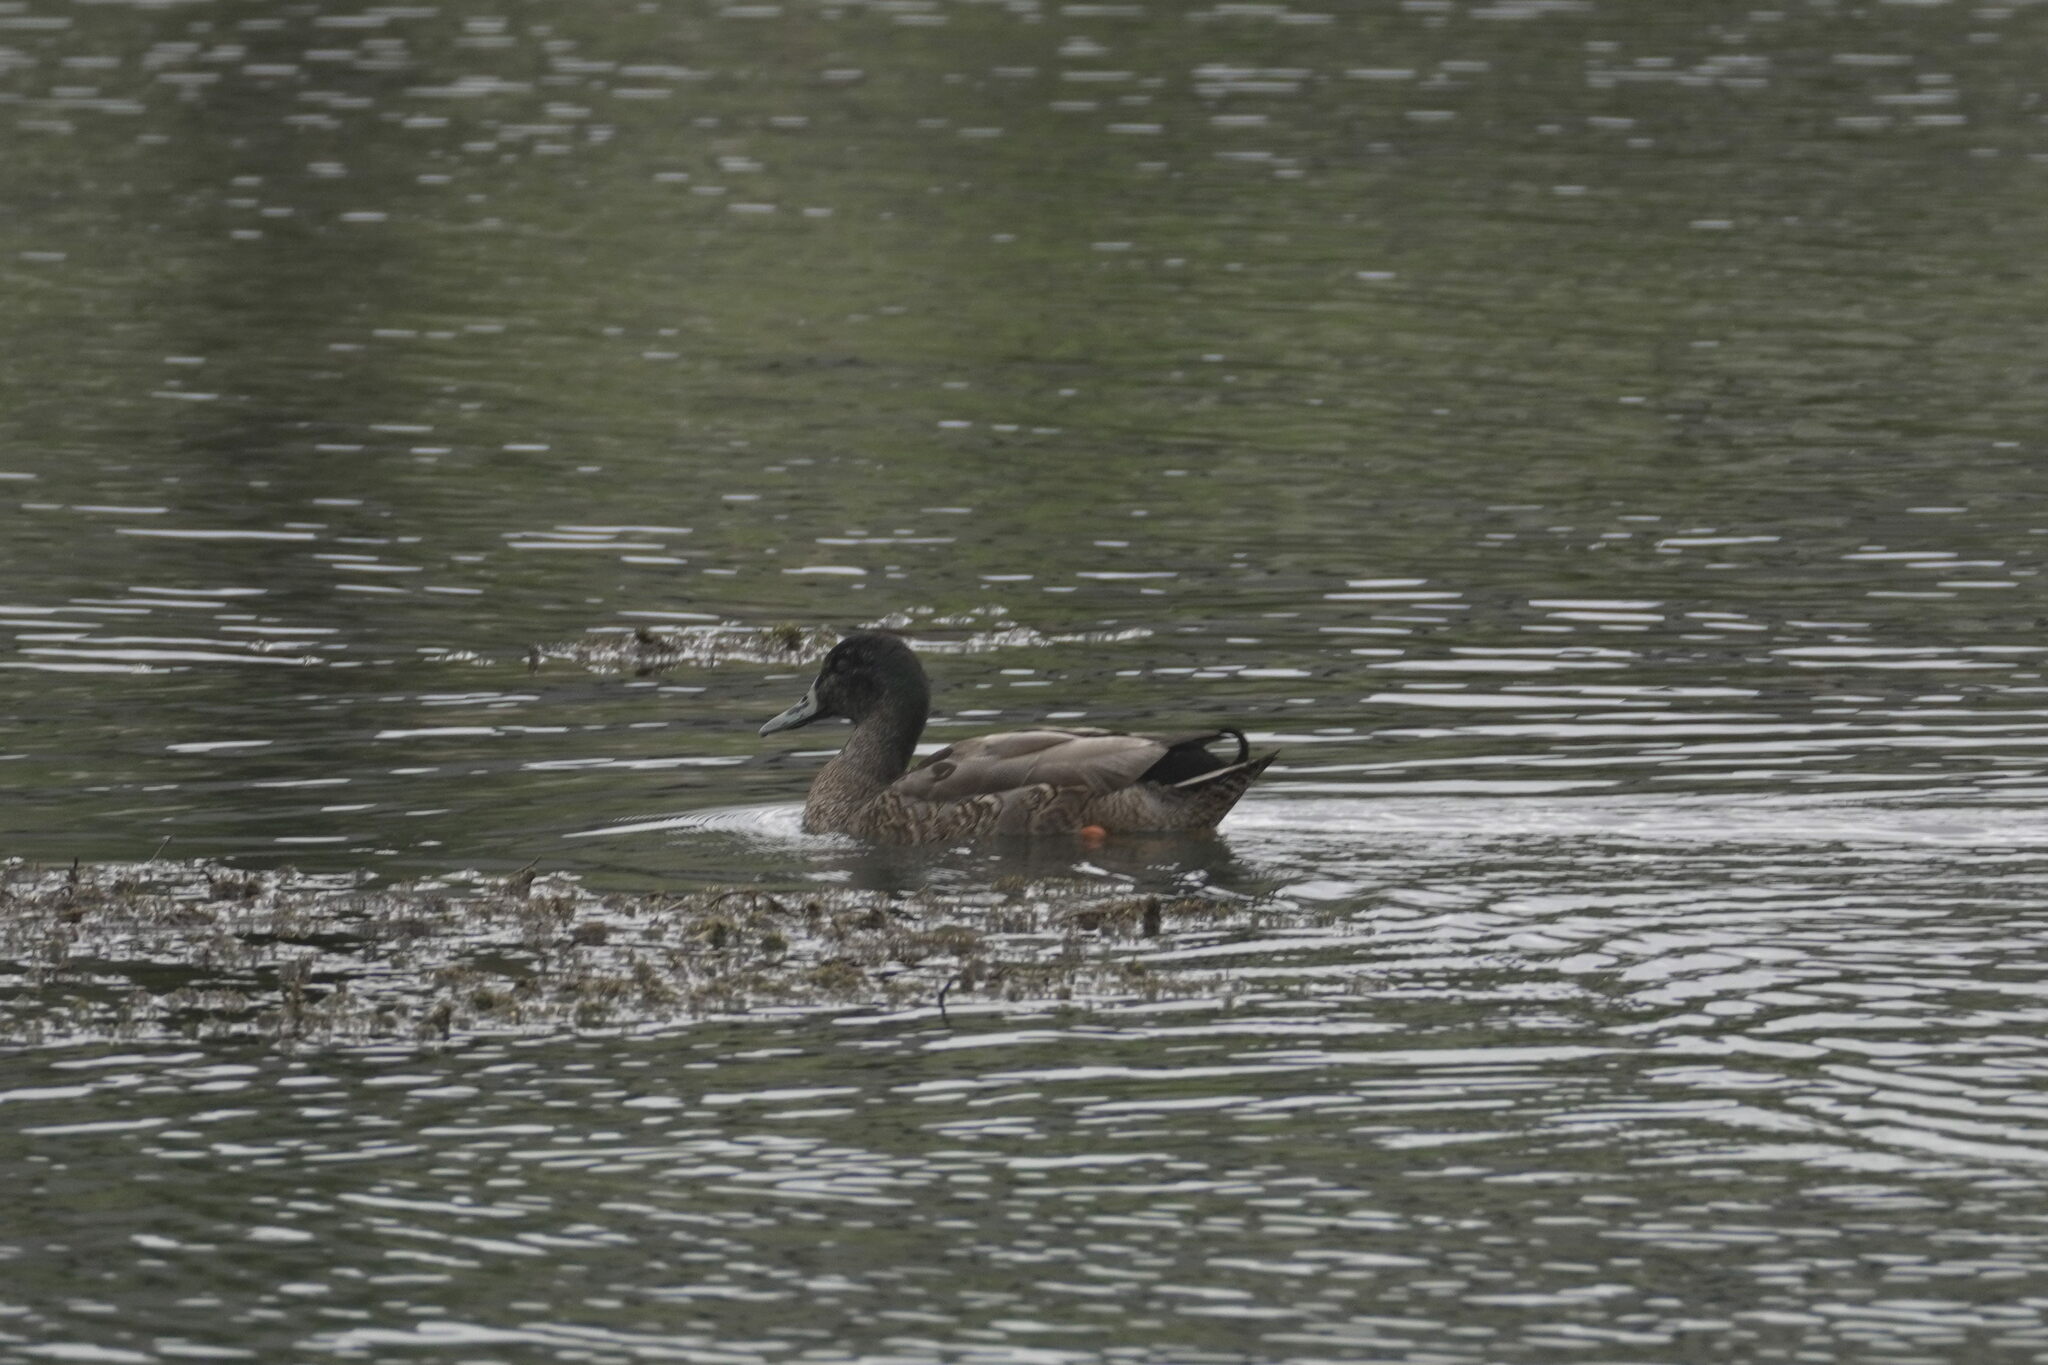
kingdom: Animalia
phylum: Chordata
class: Aves
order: Anseriformes
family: Anatidae
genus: Anas
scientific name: Anas
